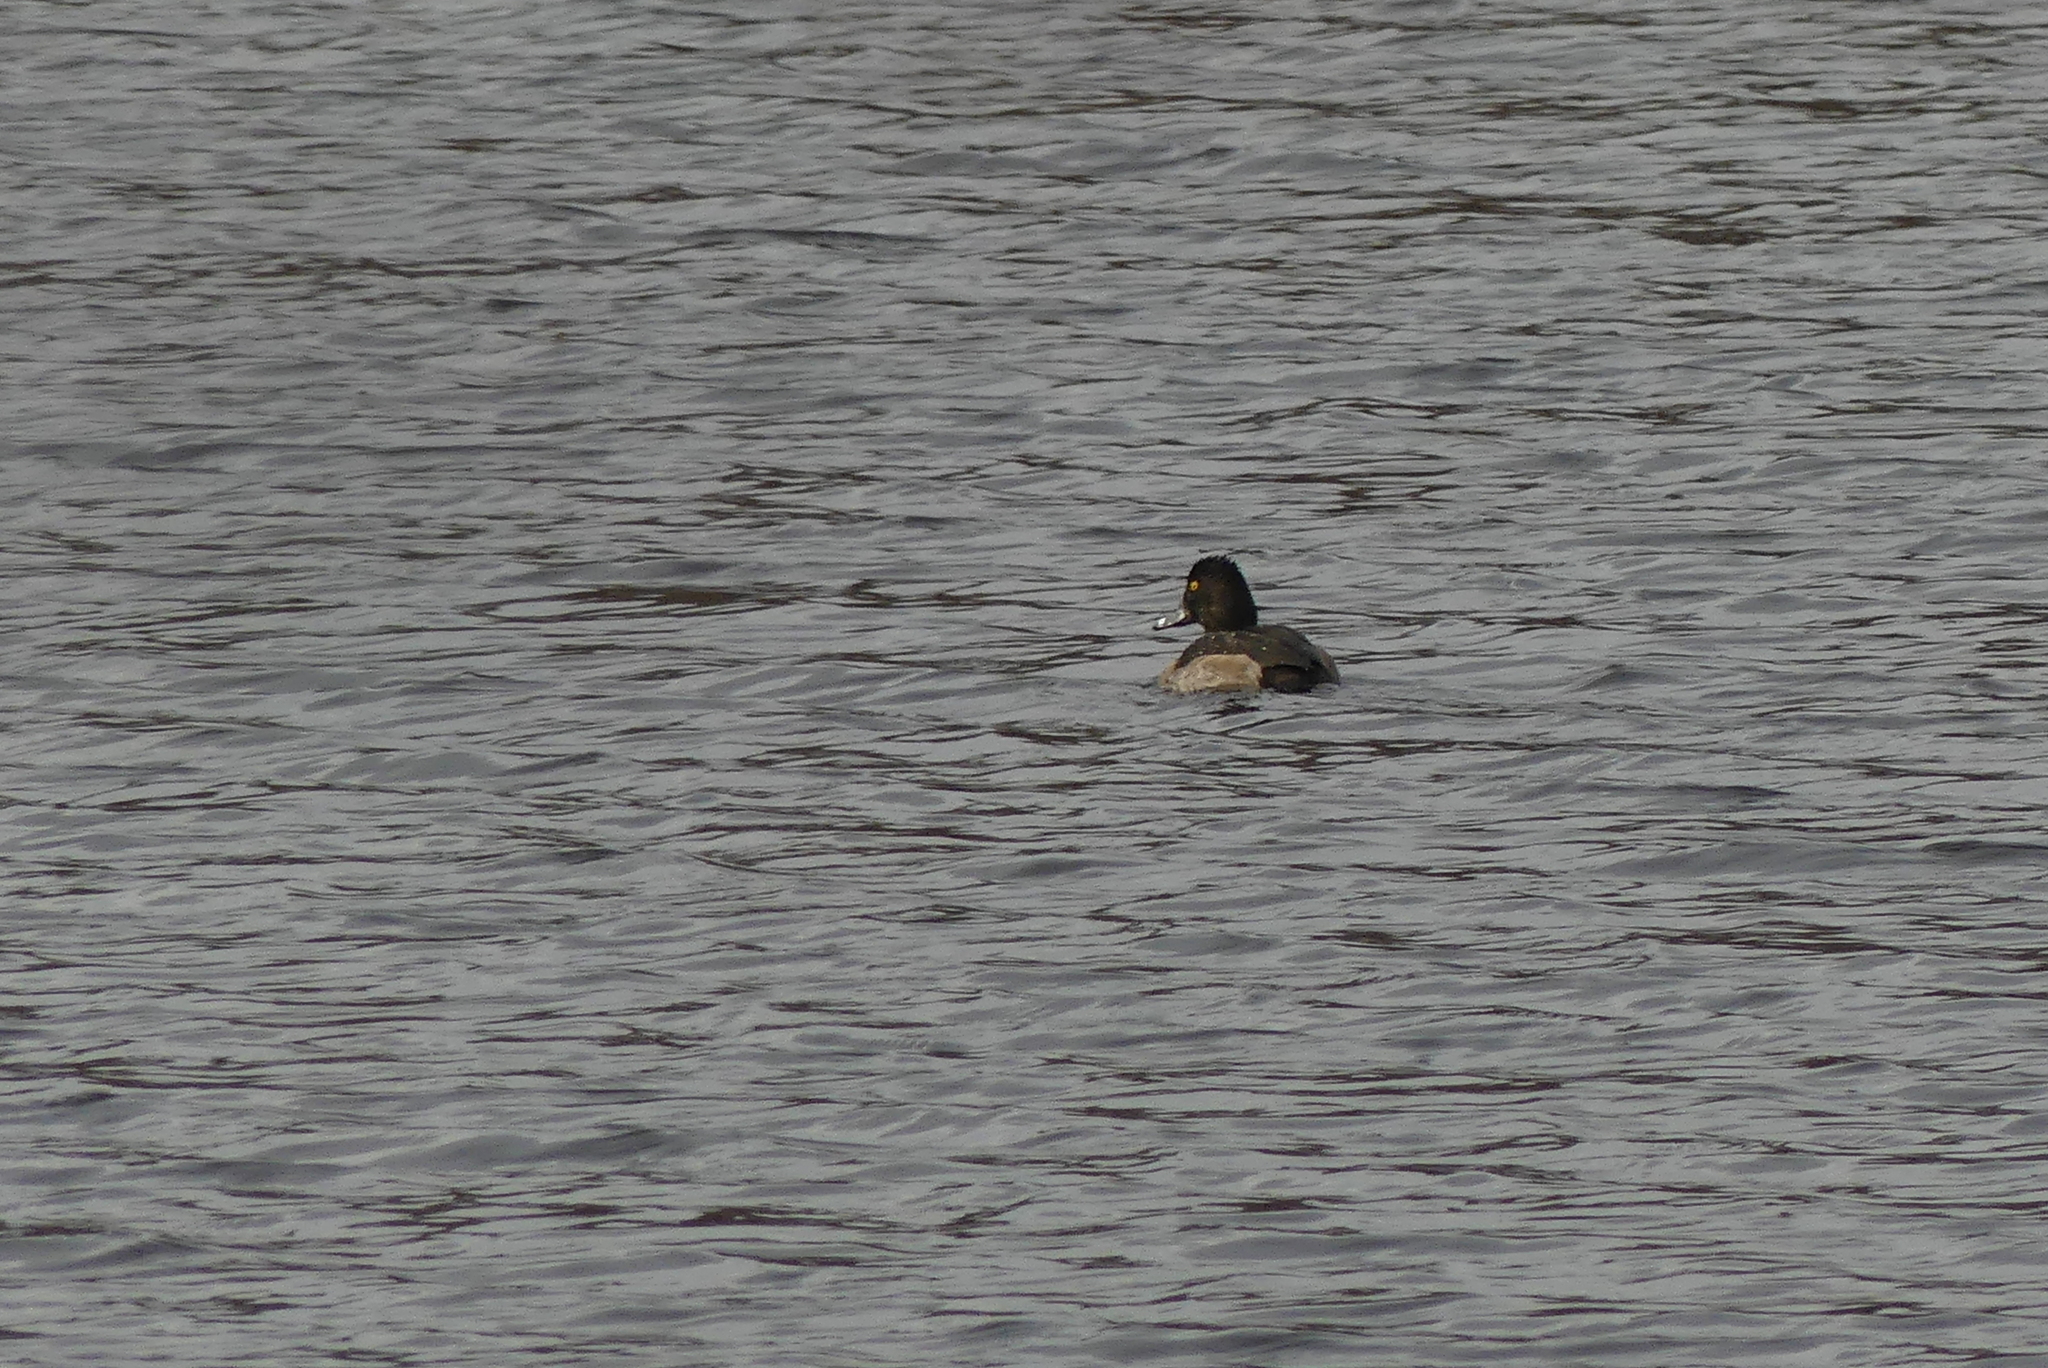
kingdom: Animalia
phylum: Chordata
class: Aves
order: Anseriformes
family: Anatidae
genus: Aythya
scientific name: Aythya collaris
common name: Ring-necked duck
